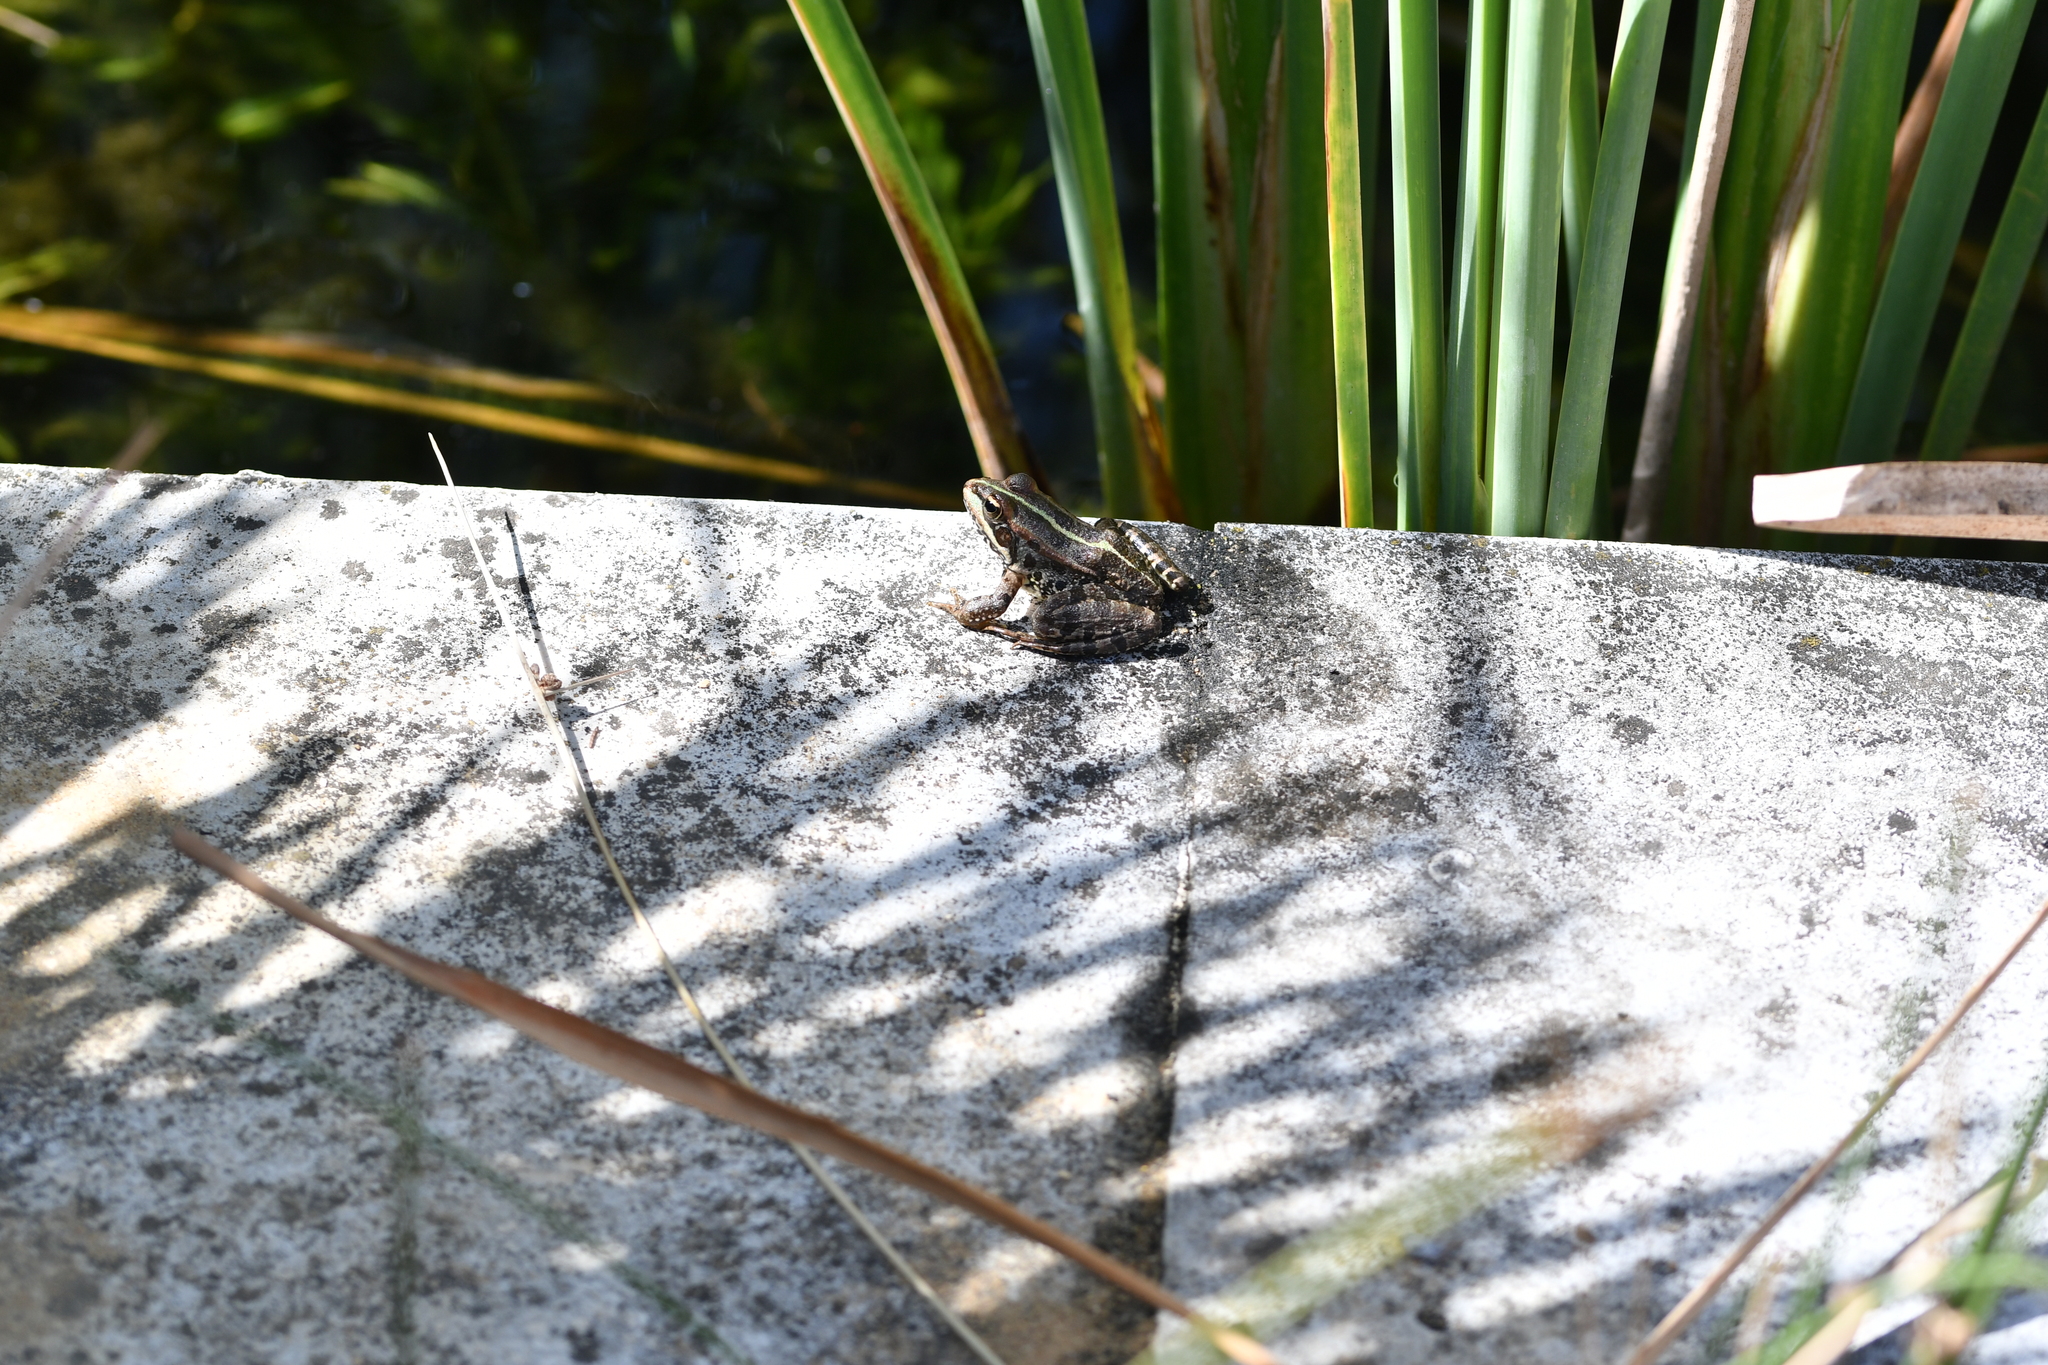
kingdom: Animalia
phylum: Chordata
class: Amphibia
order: Anura
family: Ranidae
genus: Pelophylax
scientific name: Pelophylax perezi
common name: Perez's frog
